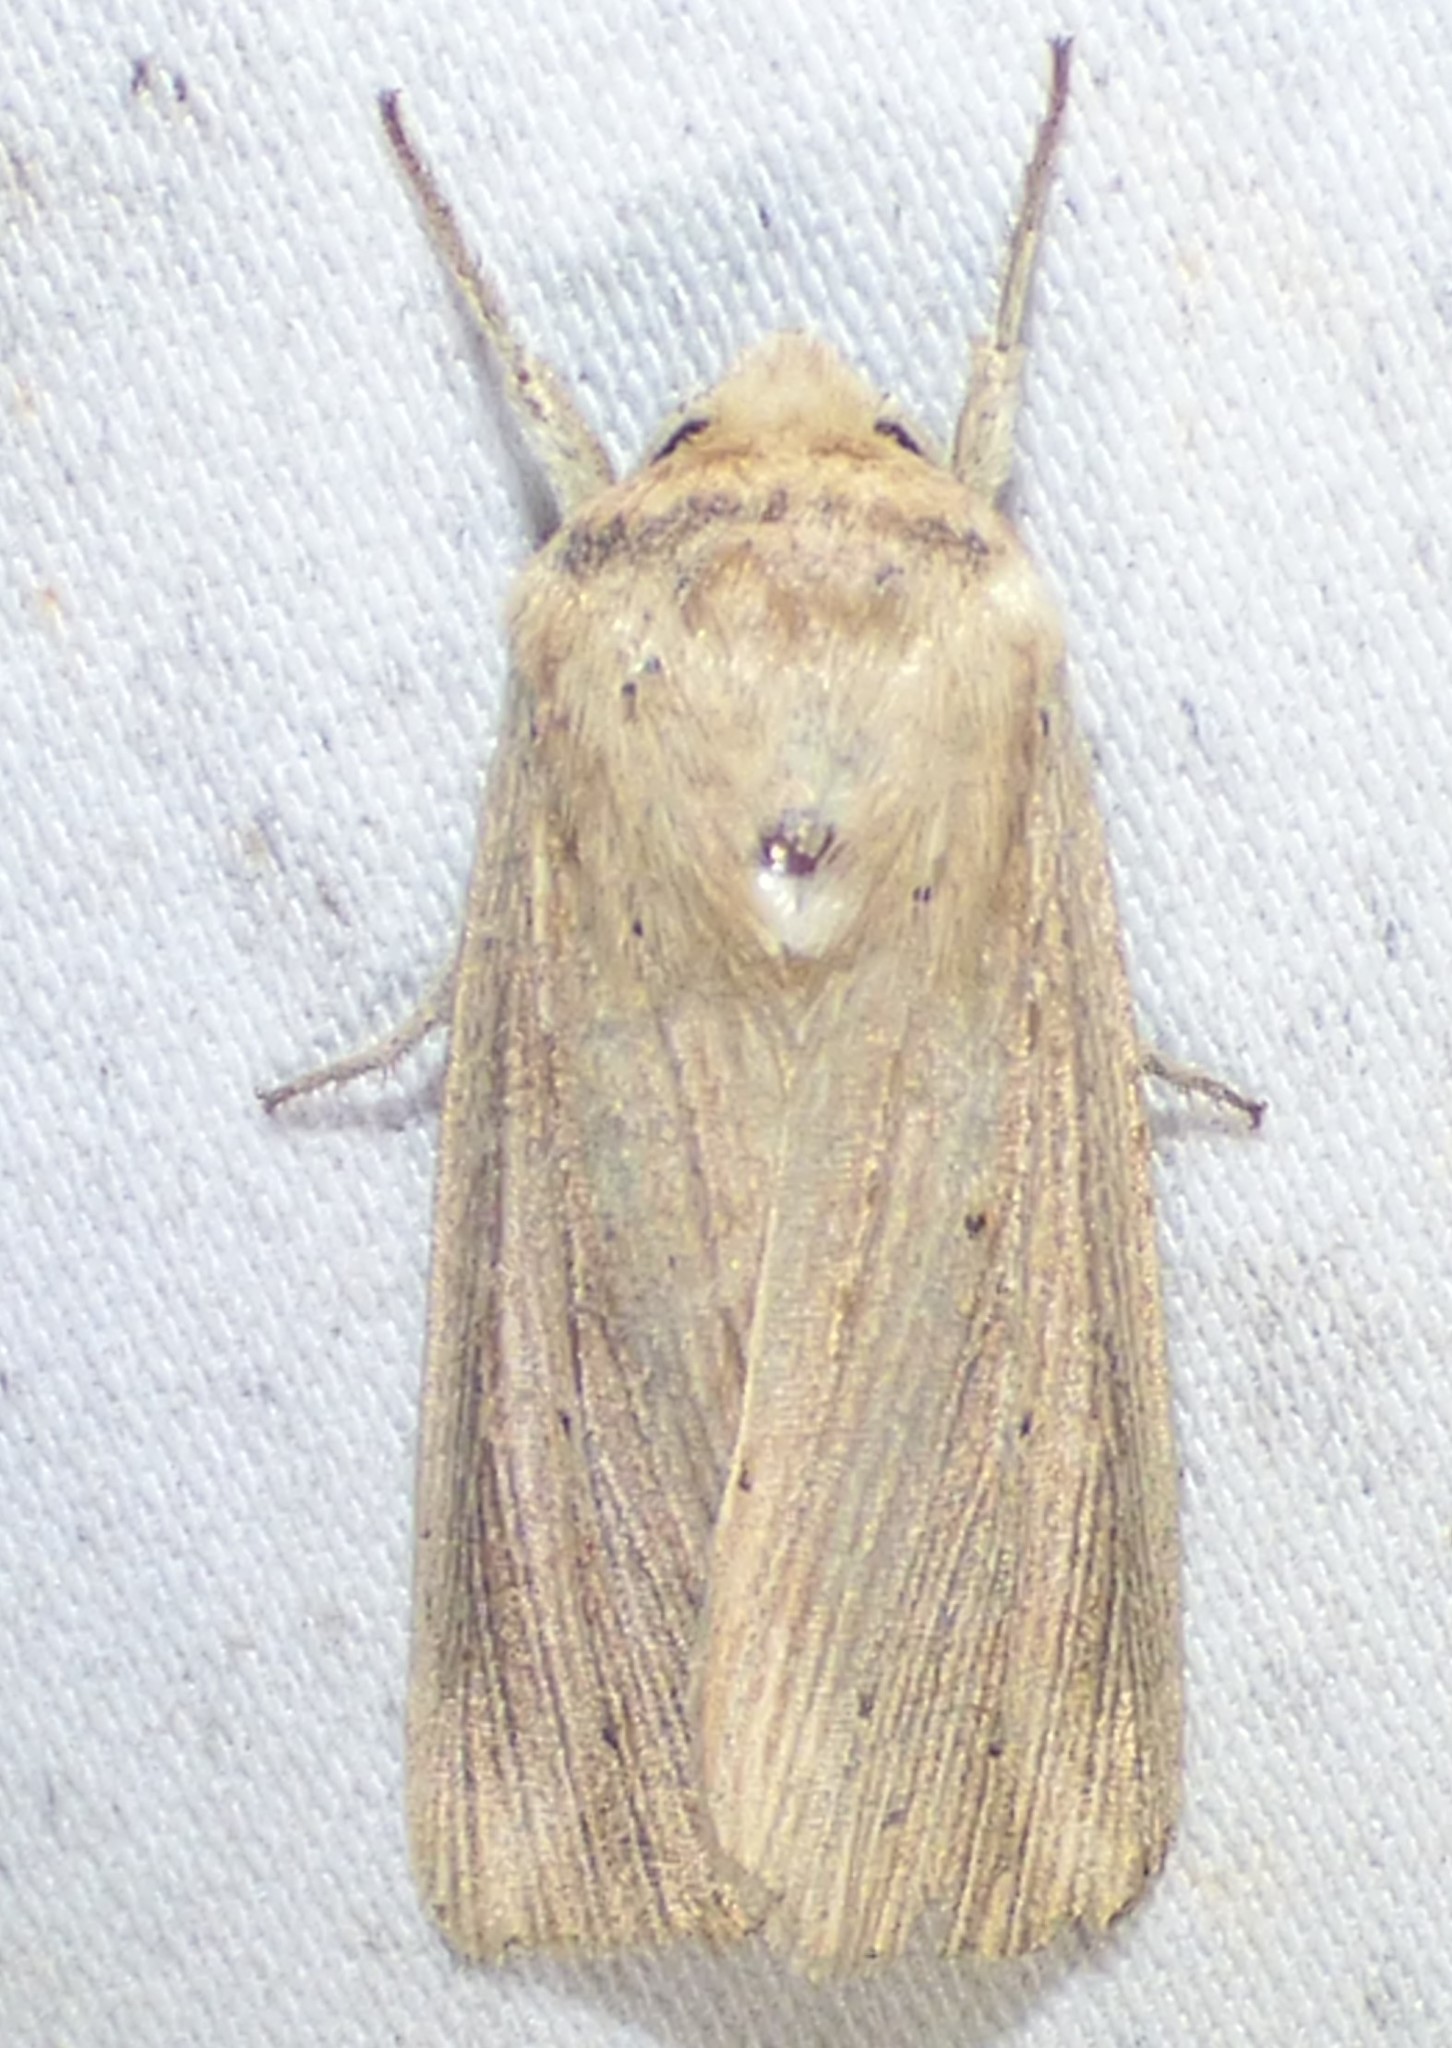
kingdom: Animalia
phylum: Arthropoda
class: Insecta
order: Lepidoptera
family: Noctuidae
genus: Leucania
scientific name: Leucania adjuta
